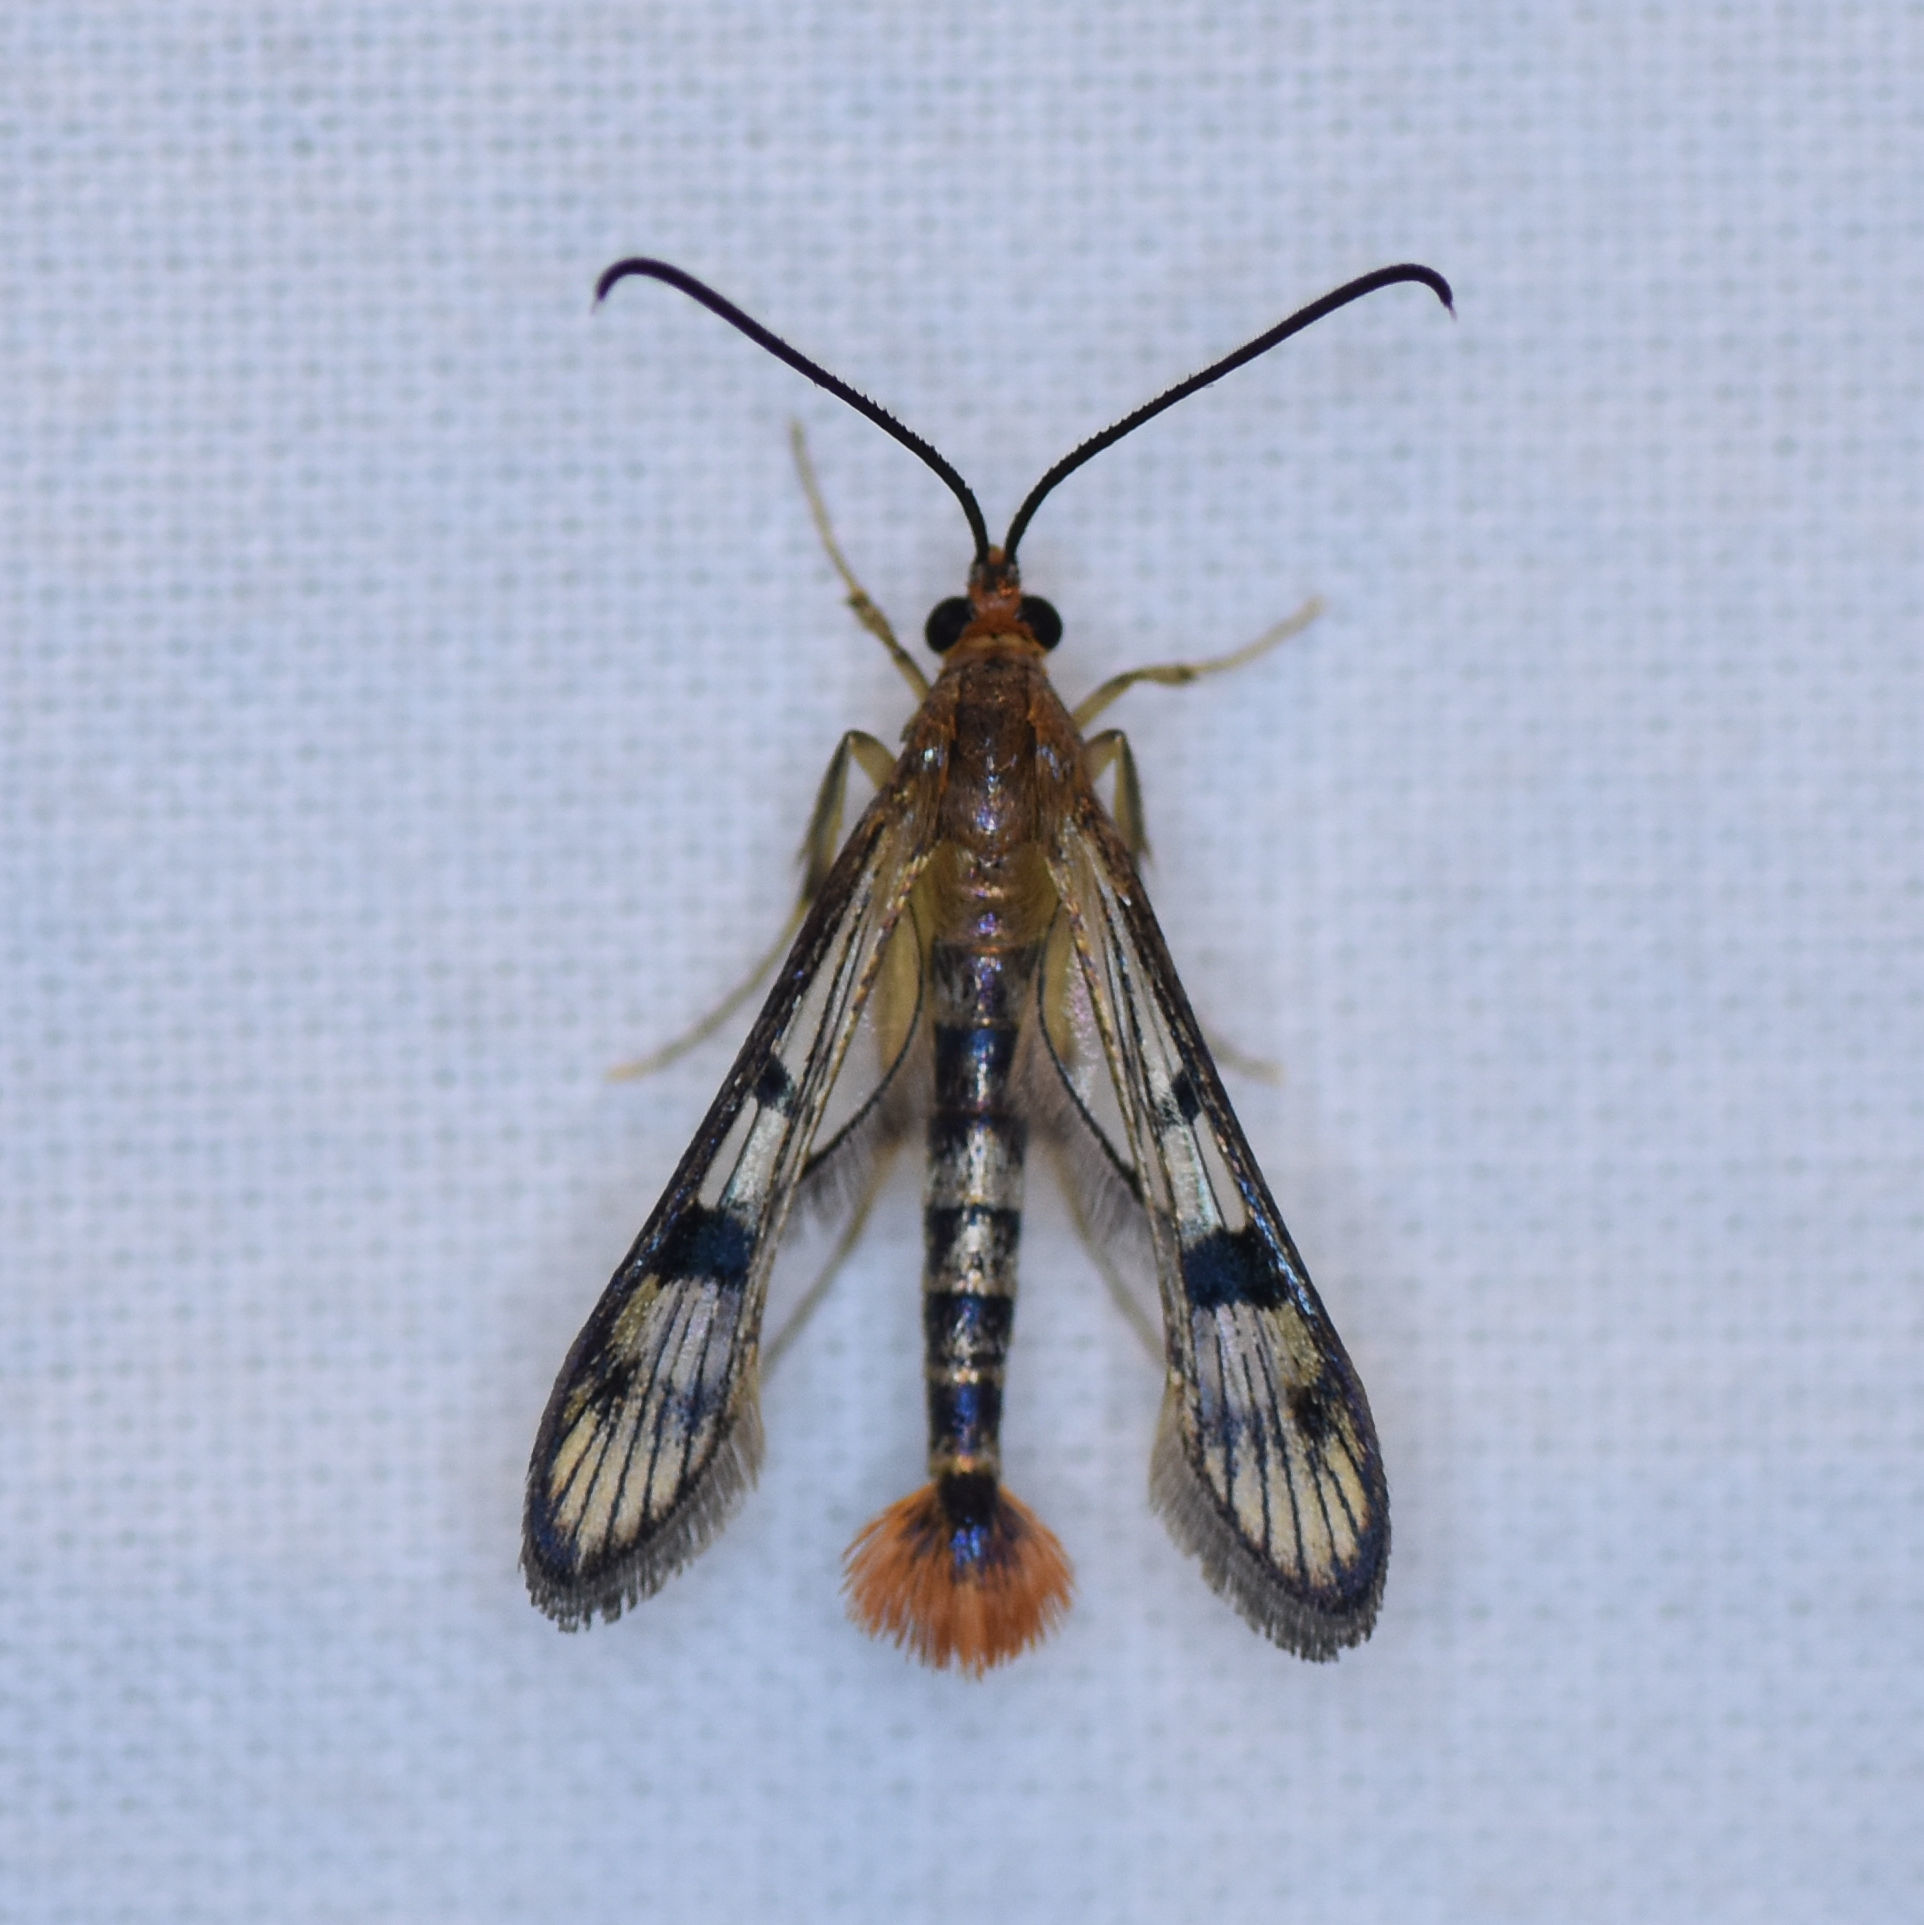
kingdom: Animalia
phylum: Arthropoda
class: Insecta
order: Lepidoptera
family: Sesiidae
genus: Synanthedon
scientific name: Synanthedon acerni
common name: Maple callus borer moth
